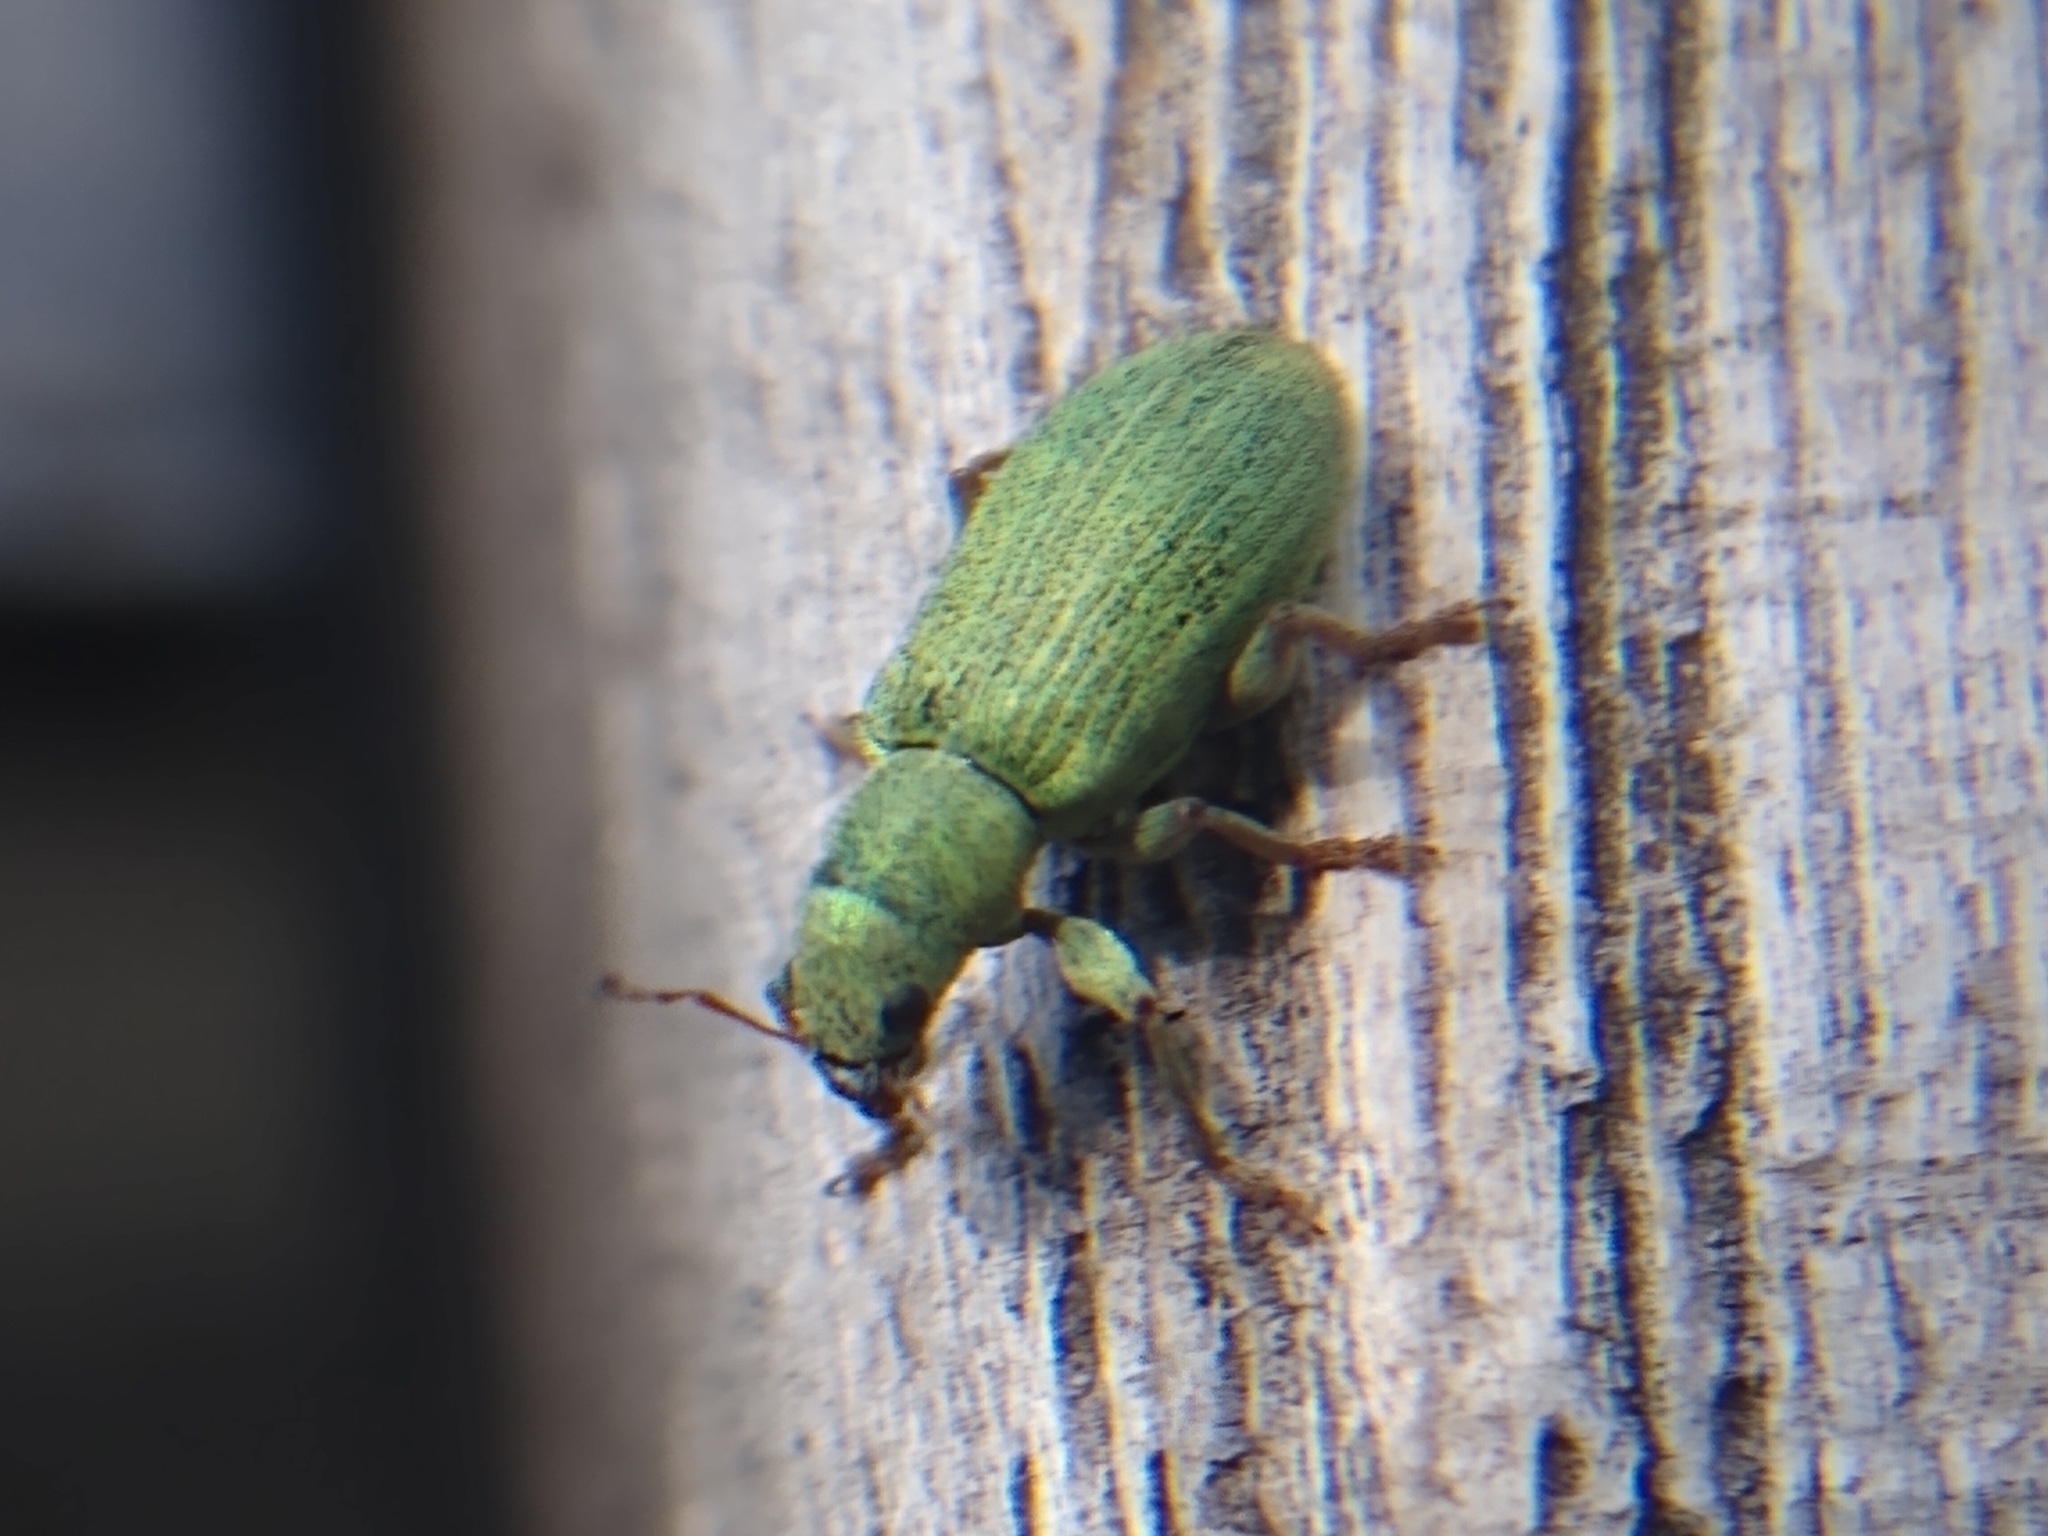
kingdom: Animalia
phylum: Arthropoda
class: Insecta
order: Coleoptera
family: Curculionidae
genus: Pachyrhinus
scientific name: Pachyrhinus lethierryi
